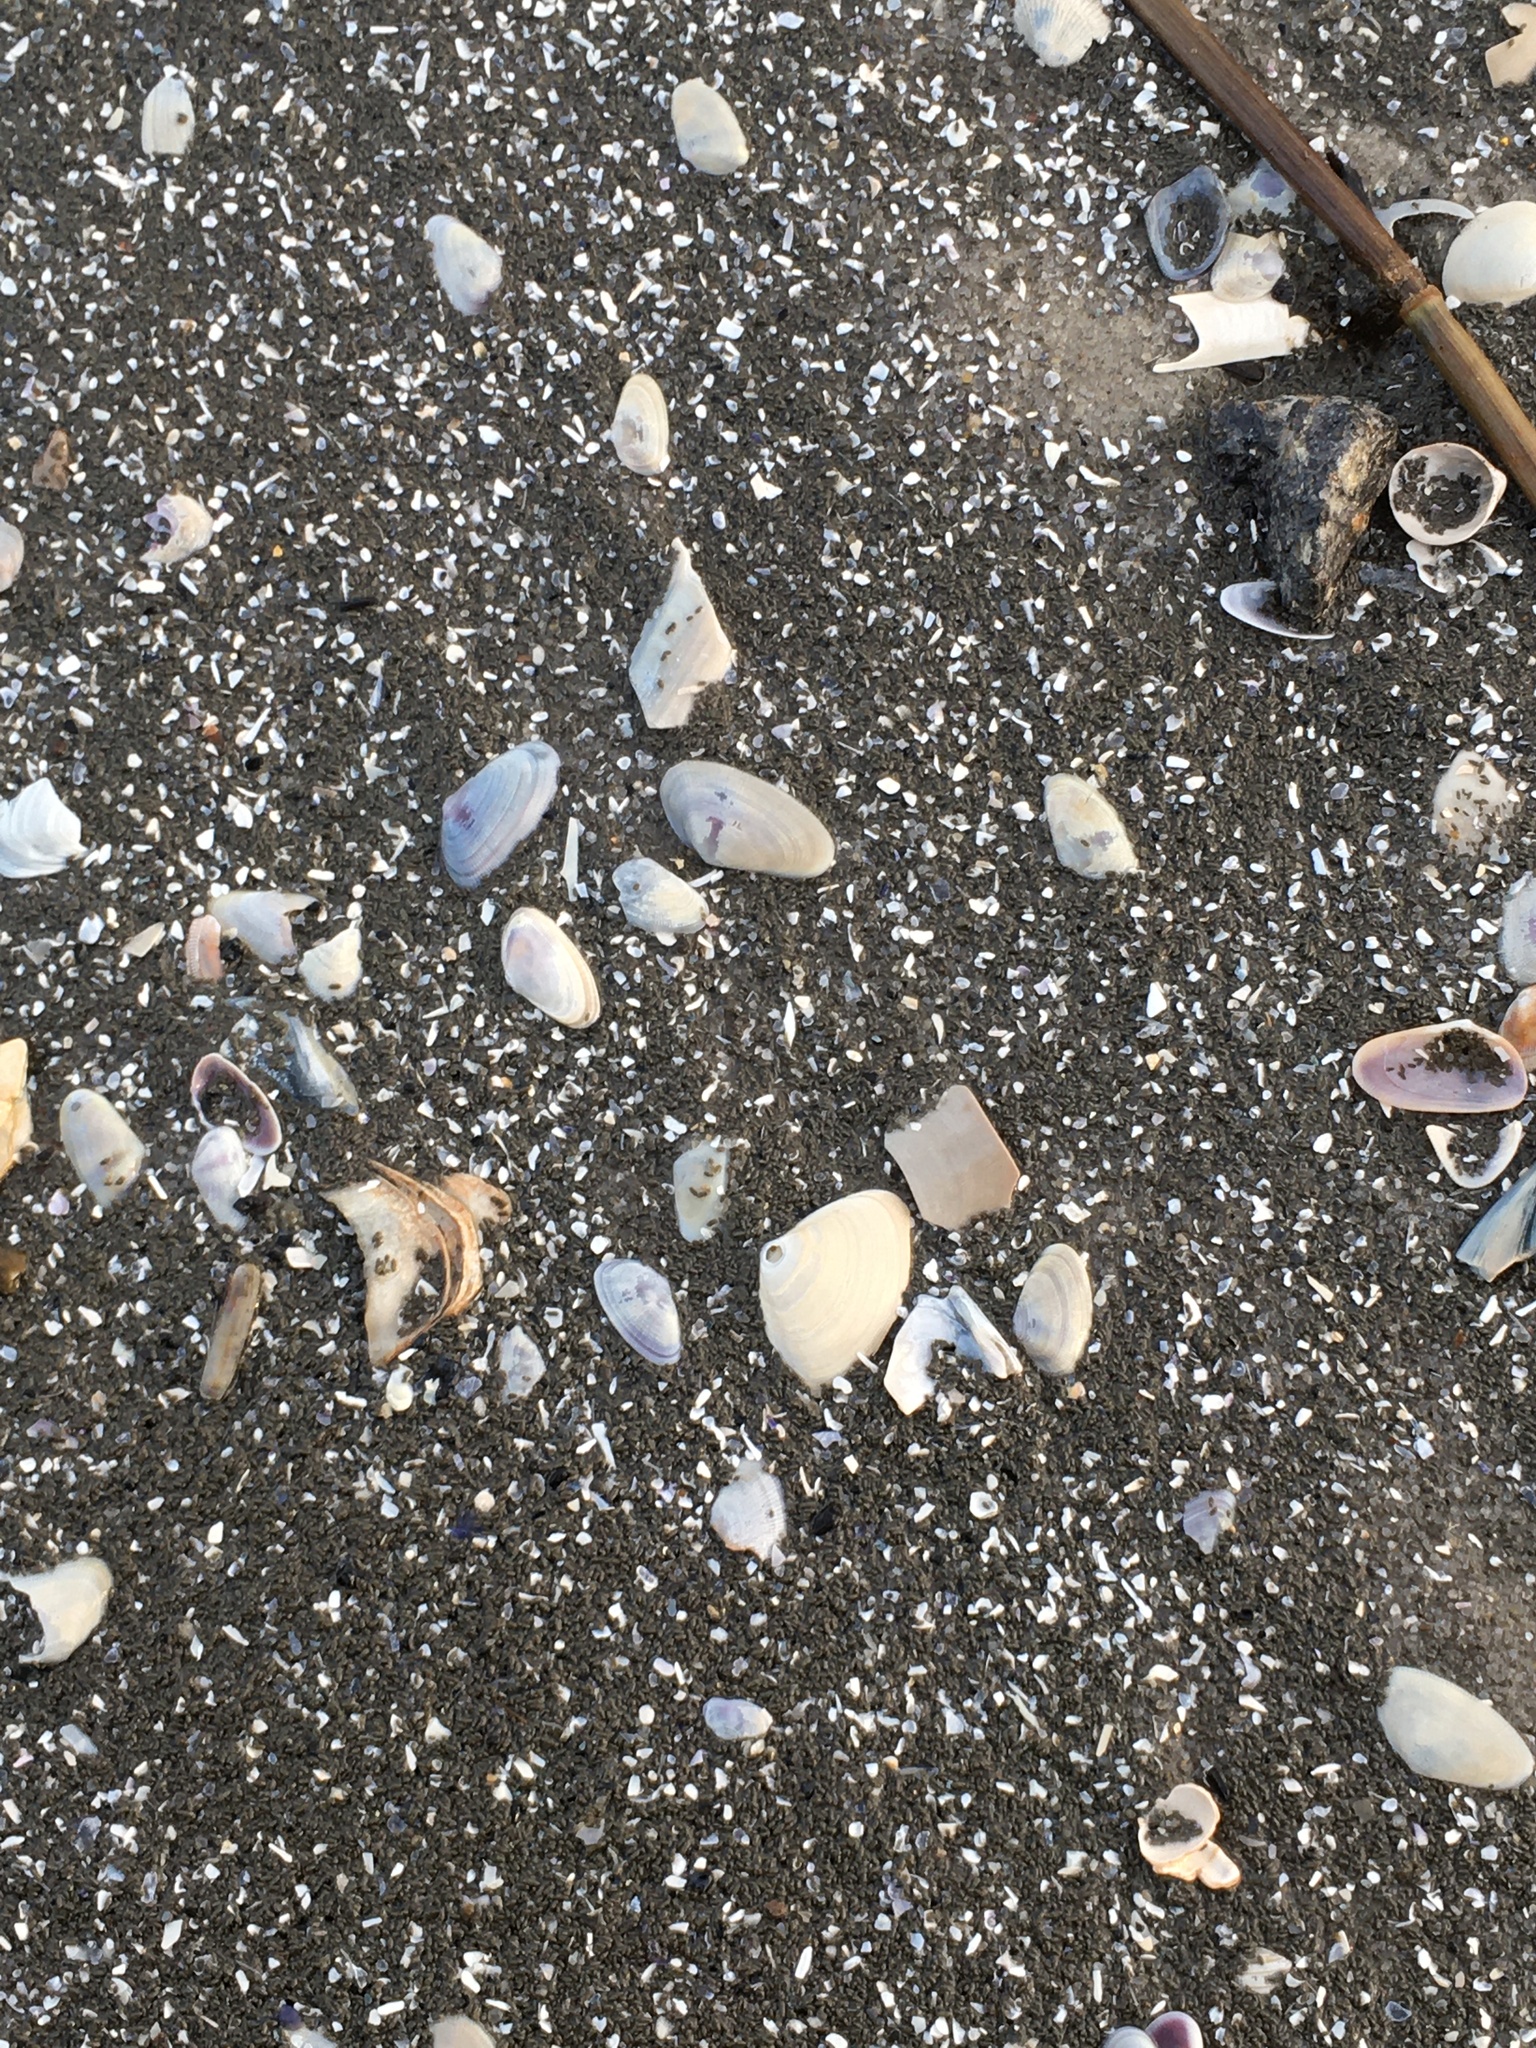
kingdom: Animalia
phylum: Mollusca
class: Bivalvia
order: Cardiida
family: Donacidae
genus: Donax
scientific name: Donax fossor
